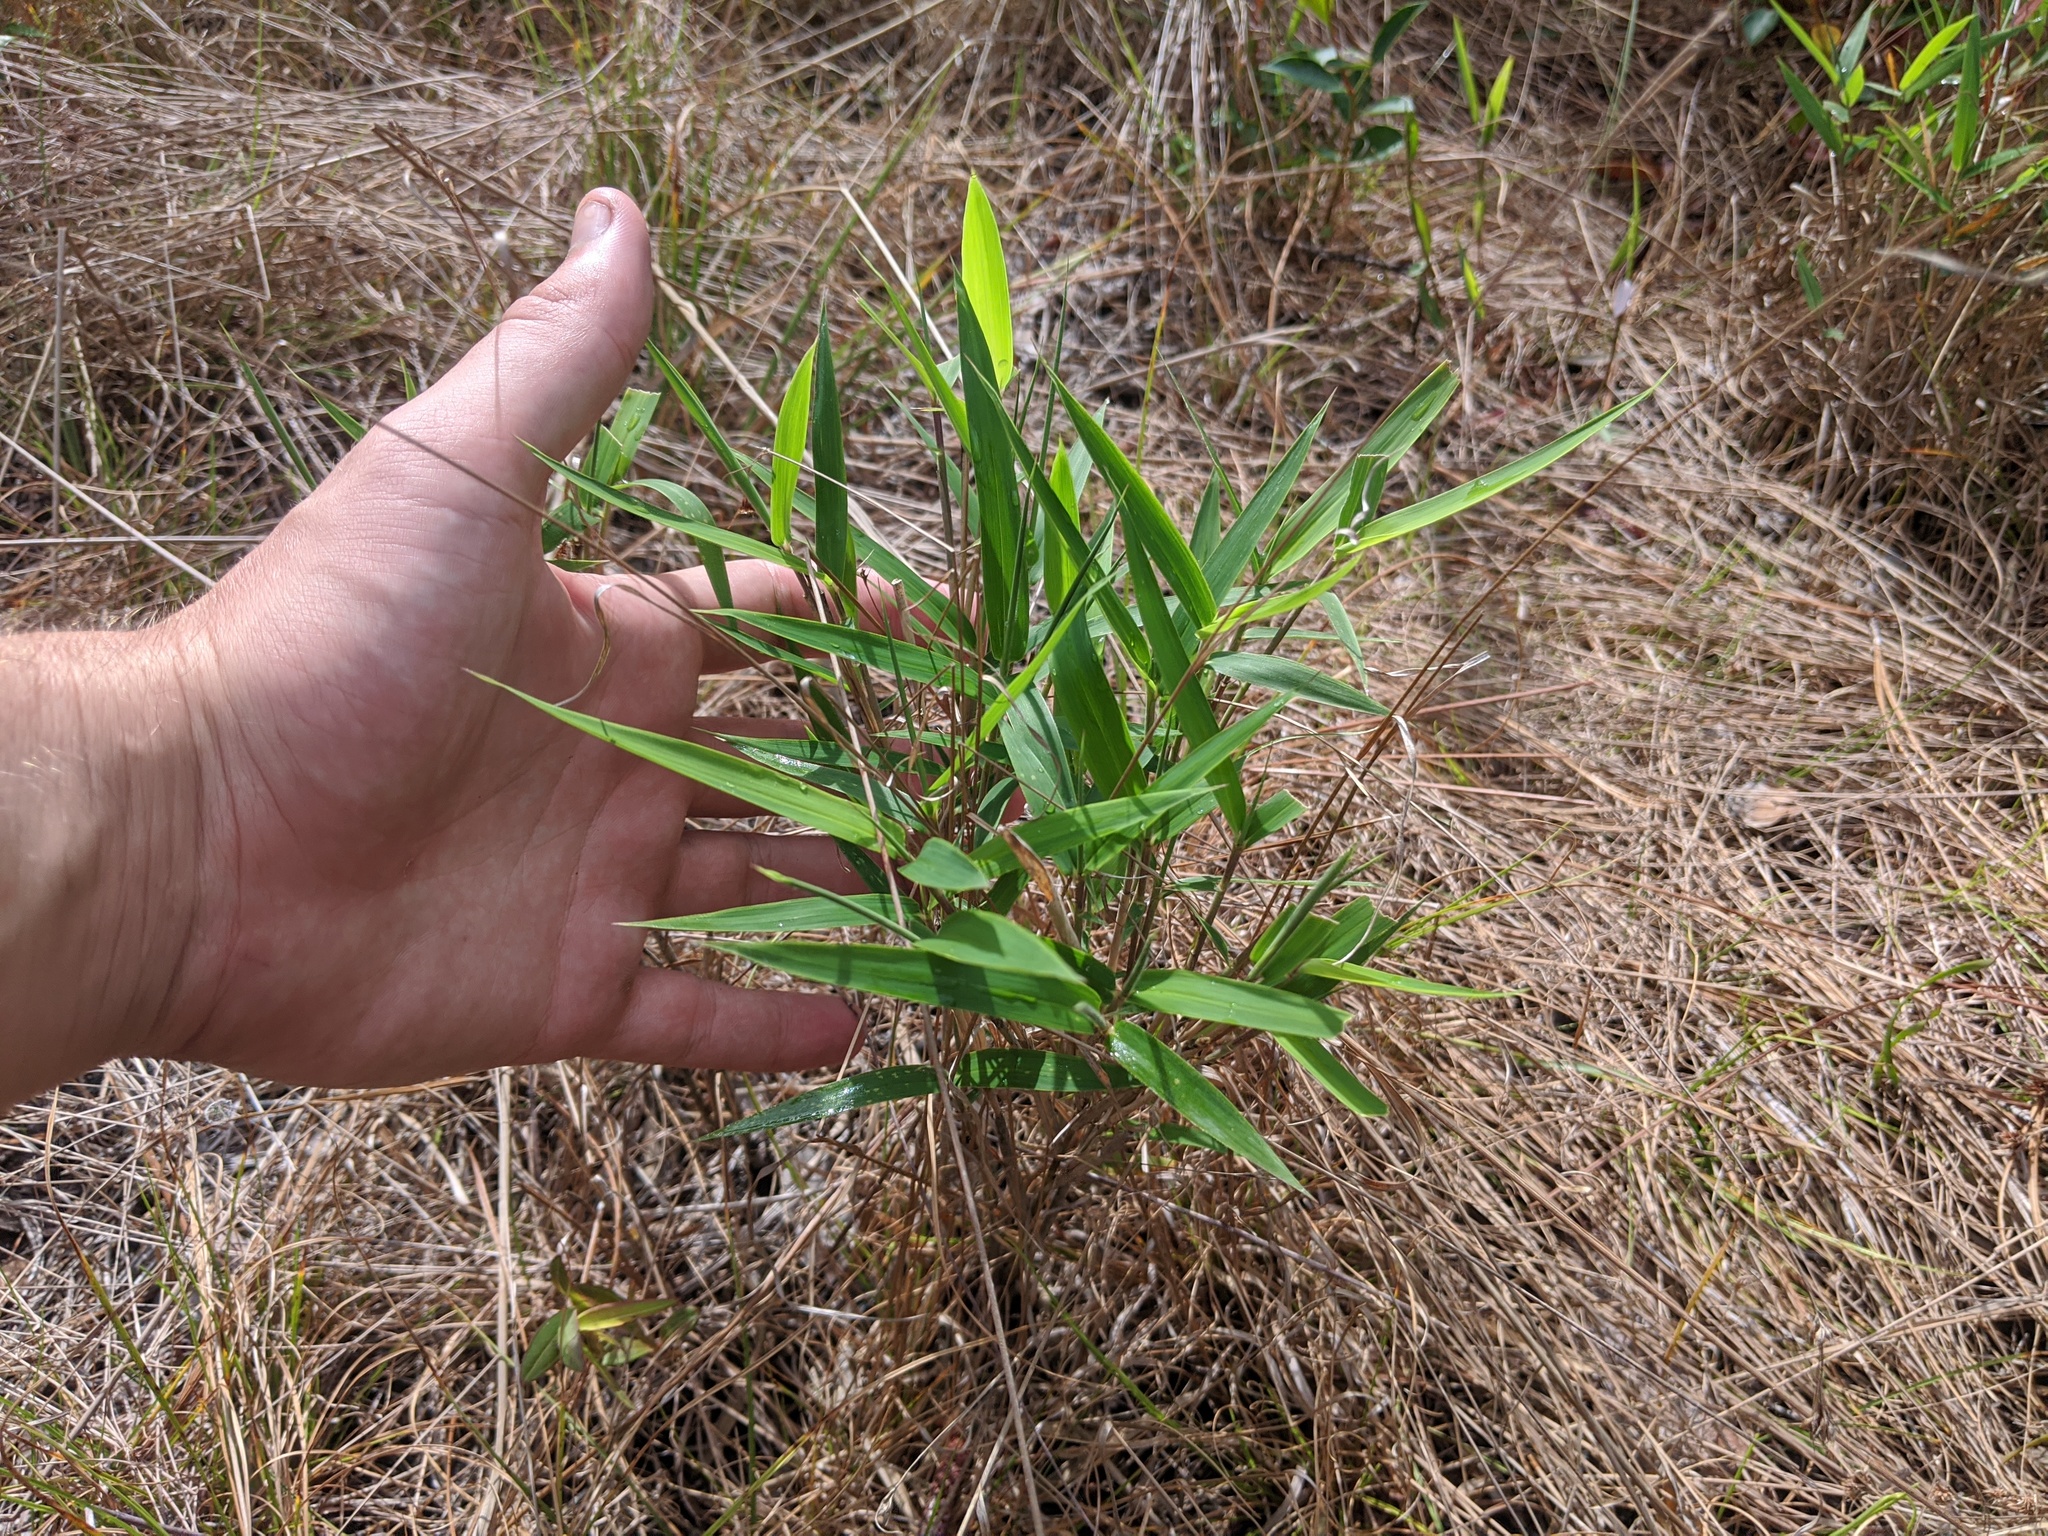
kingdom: Plantae
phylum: Tracheophyta
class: Liliopsida
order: Poales
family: Poaceae
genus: Arundinaria
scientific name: Arundinaria tecta
